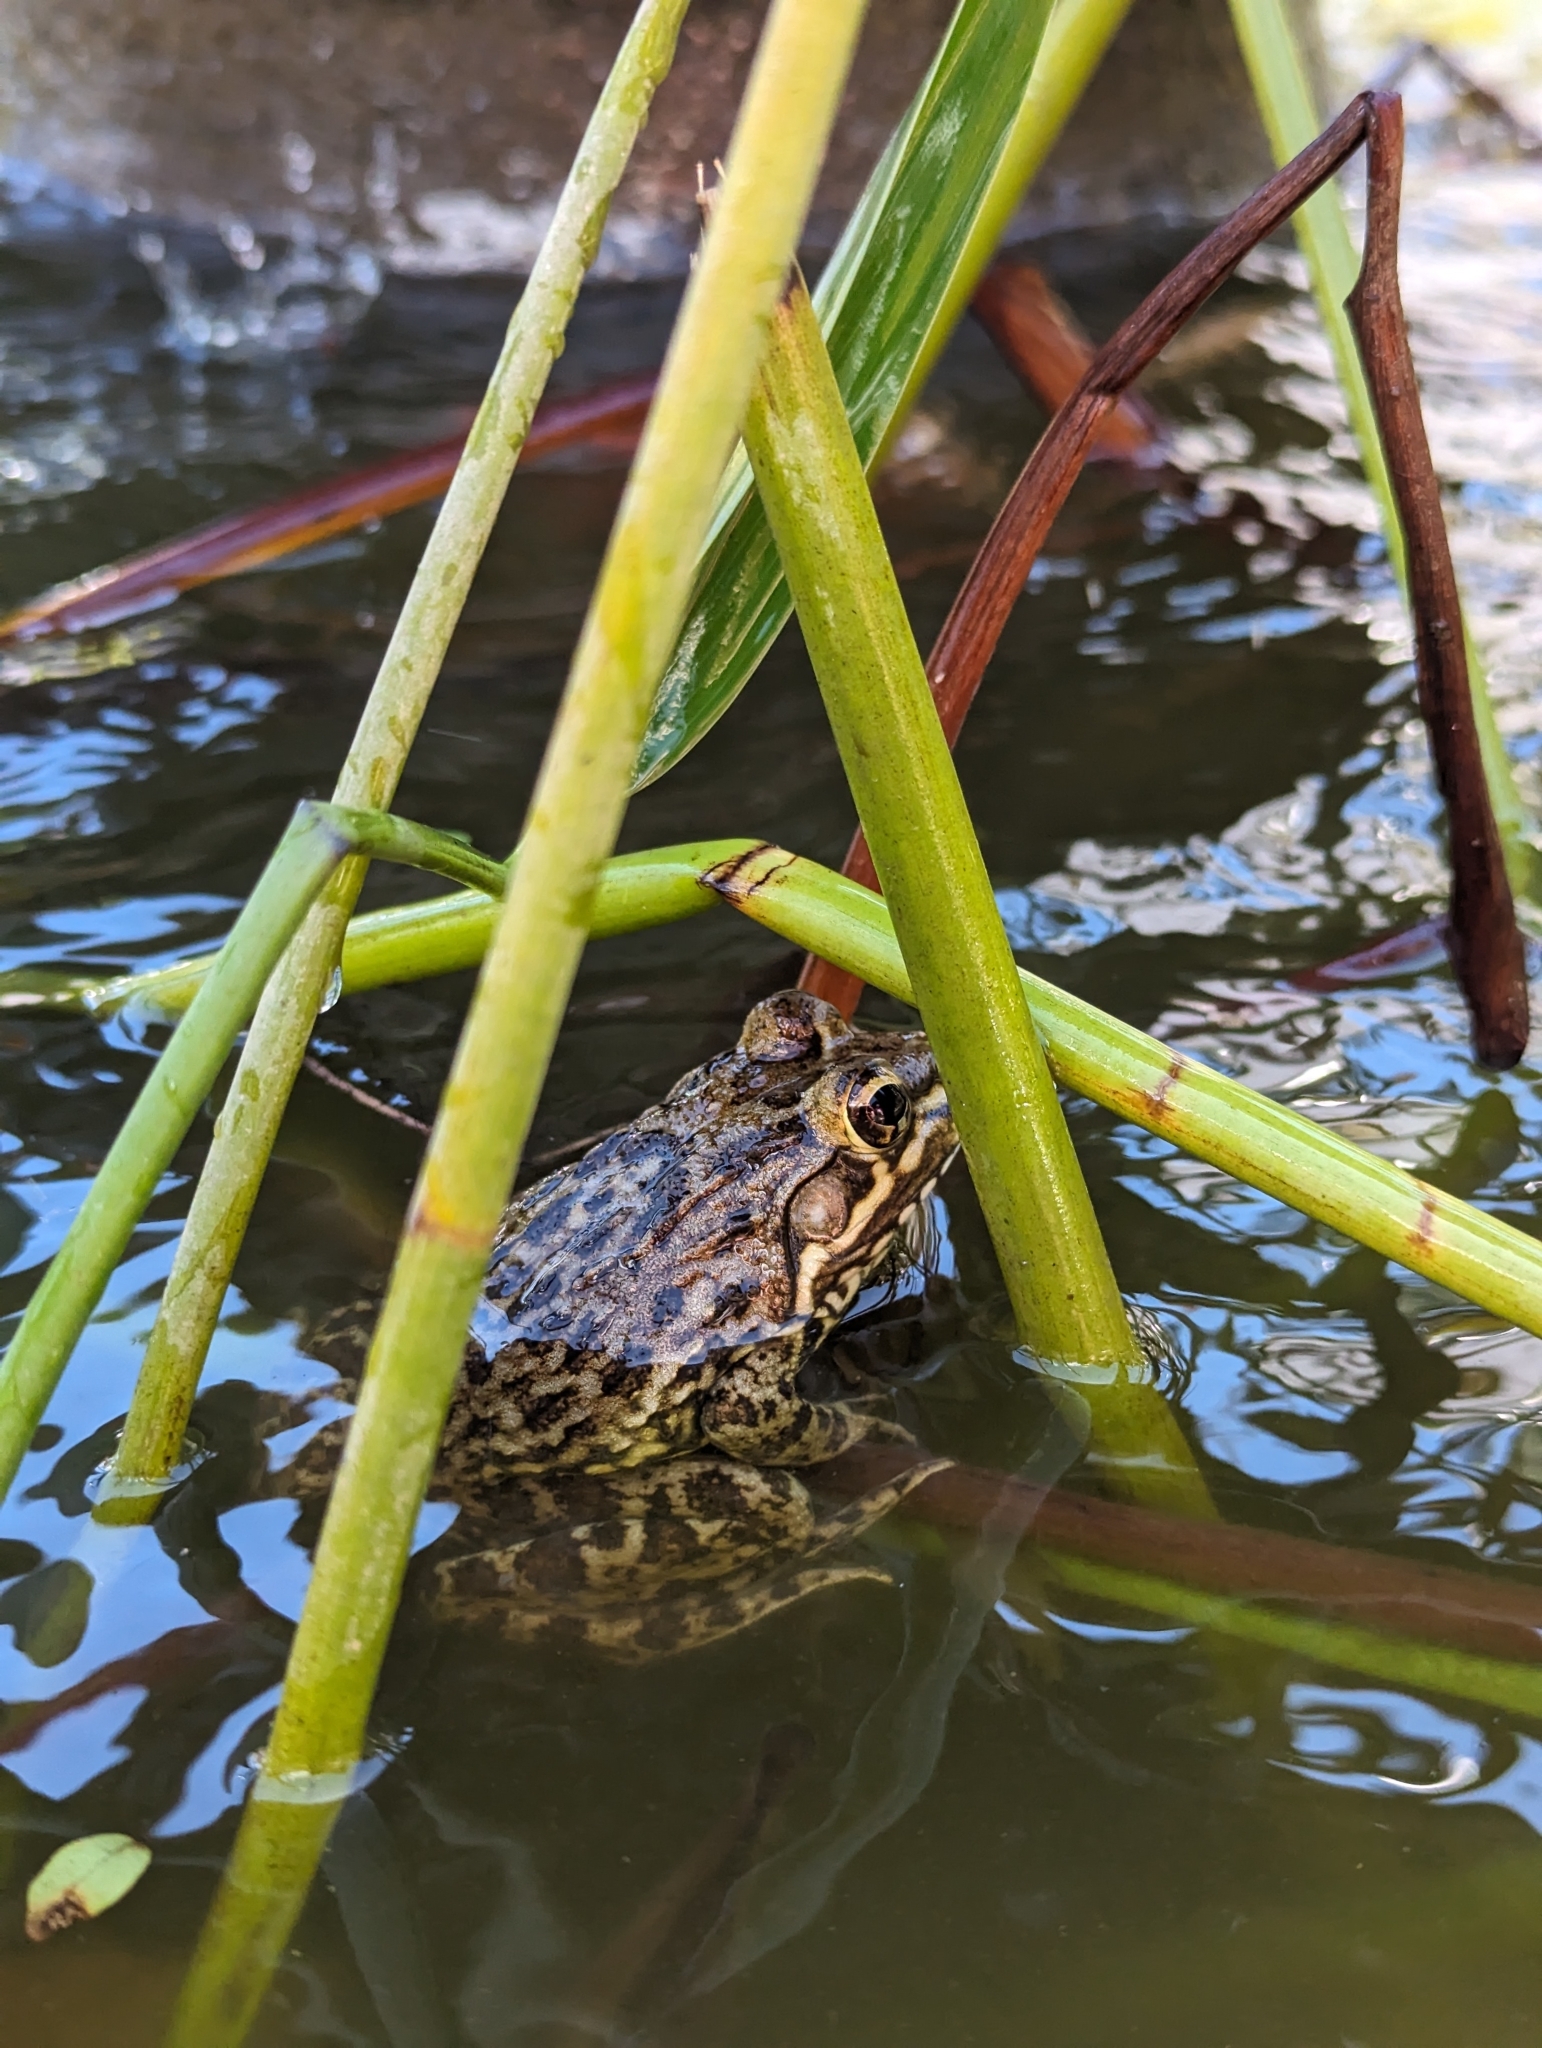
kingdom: Animalia
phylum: Chordata
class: Amphibia
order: Anura
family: Pyxicephalidae
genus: Amietia
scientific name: Amietia fuscigula
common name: Cape rana
